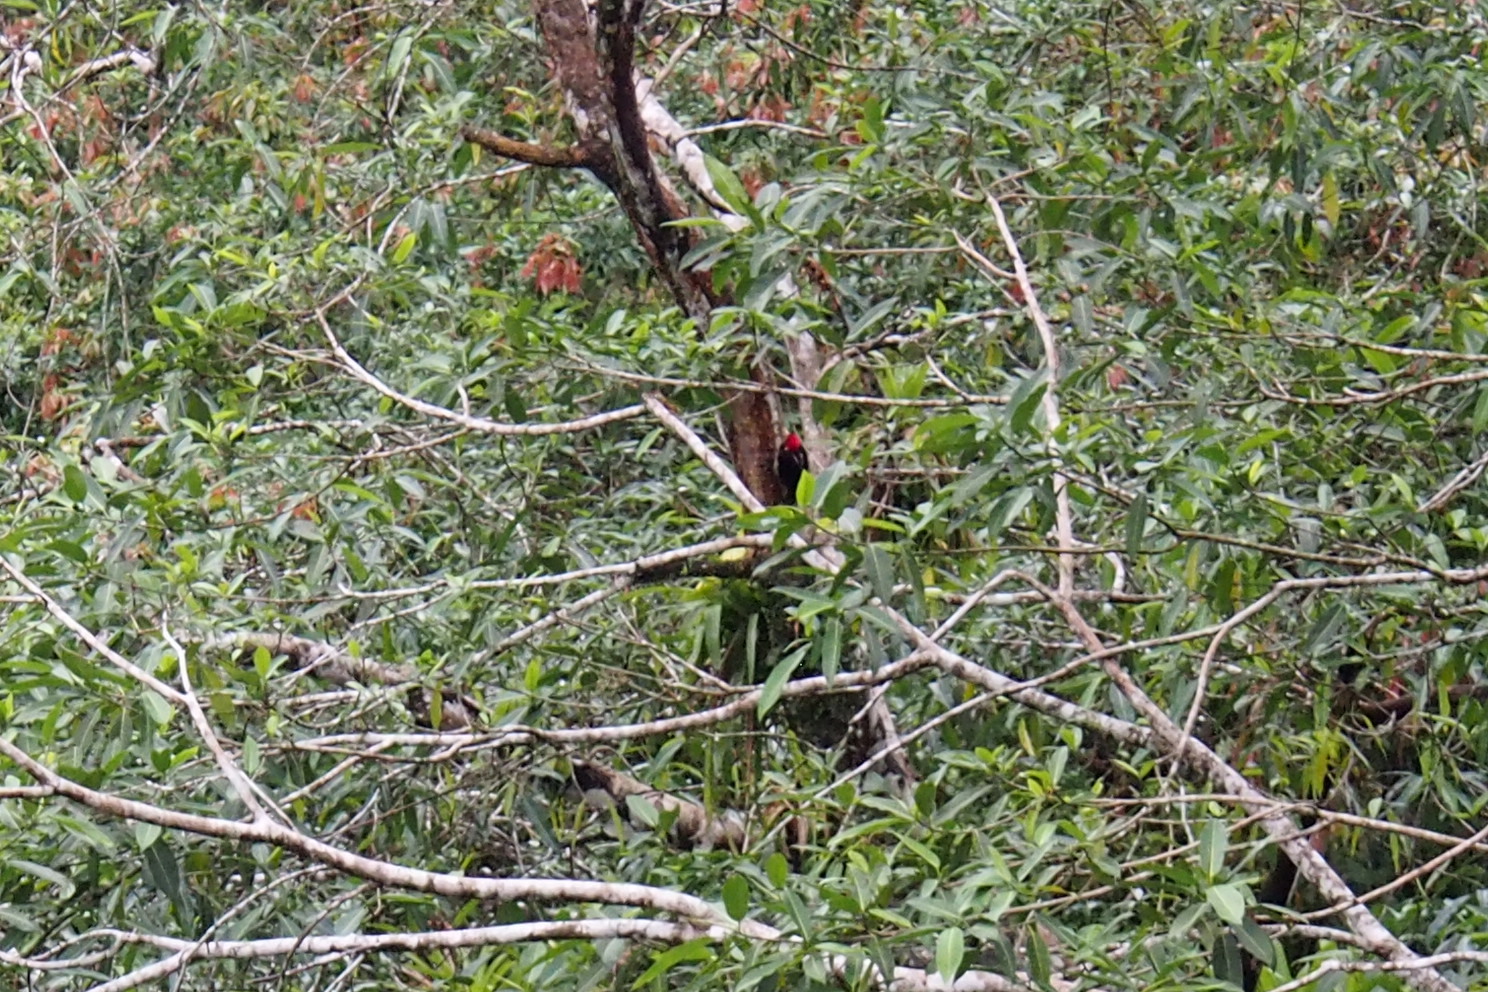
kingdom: Animalia
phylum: Chordata
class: Aves
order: Piciformes
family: Picidae
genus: Campephilus
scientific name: Campephilus guatemalensis
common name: Pale-billed woodpecker
